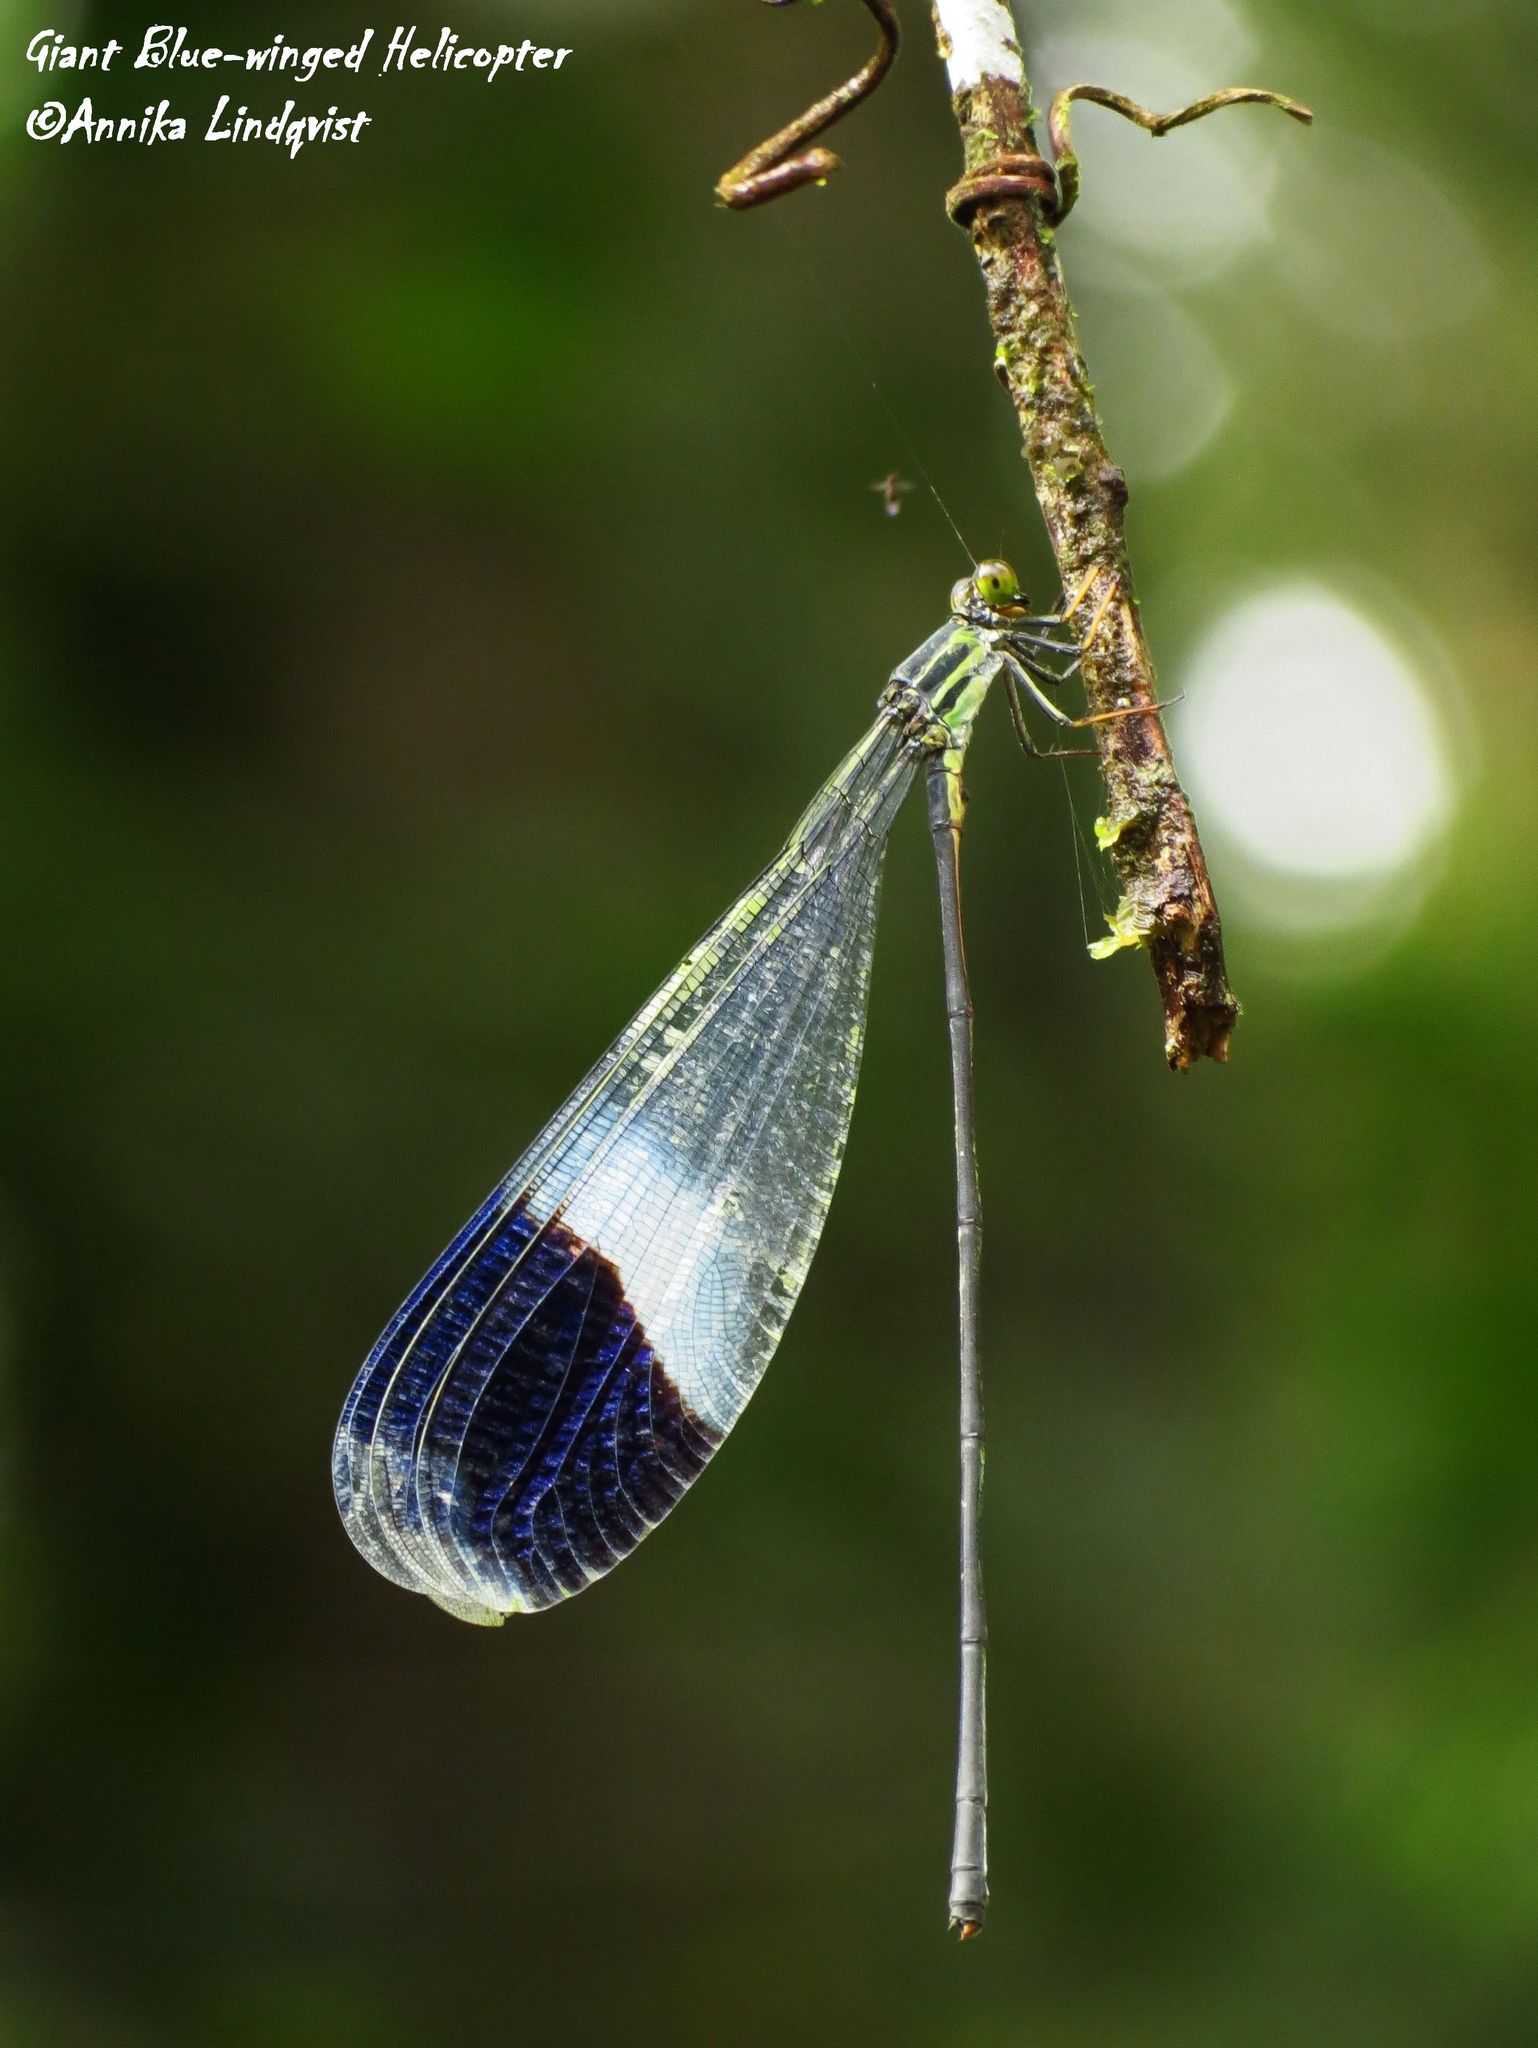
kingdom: Animalia
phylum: Arthropoda
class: Insecta
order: Odonata
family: Coenagrionidae
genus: Megaloprepus
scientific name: Megaloprepus caerulatus
